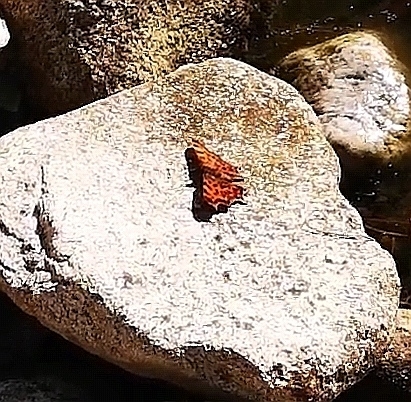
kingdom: Animalia
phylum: Arthropoda
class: Insecta
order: Lepidoptera
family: Nymphalidae
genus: Polygonia
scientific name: Polygonia c-album
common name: Comma
